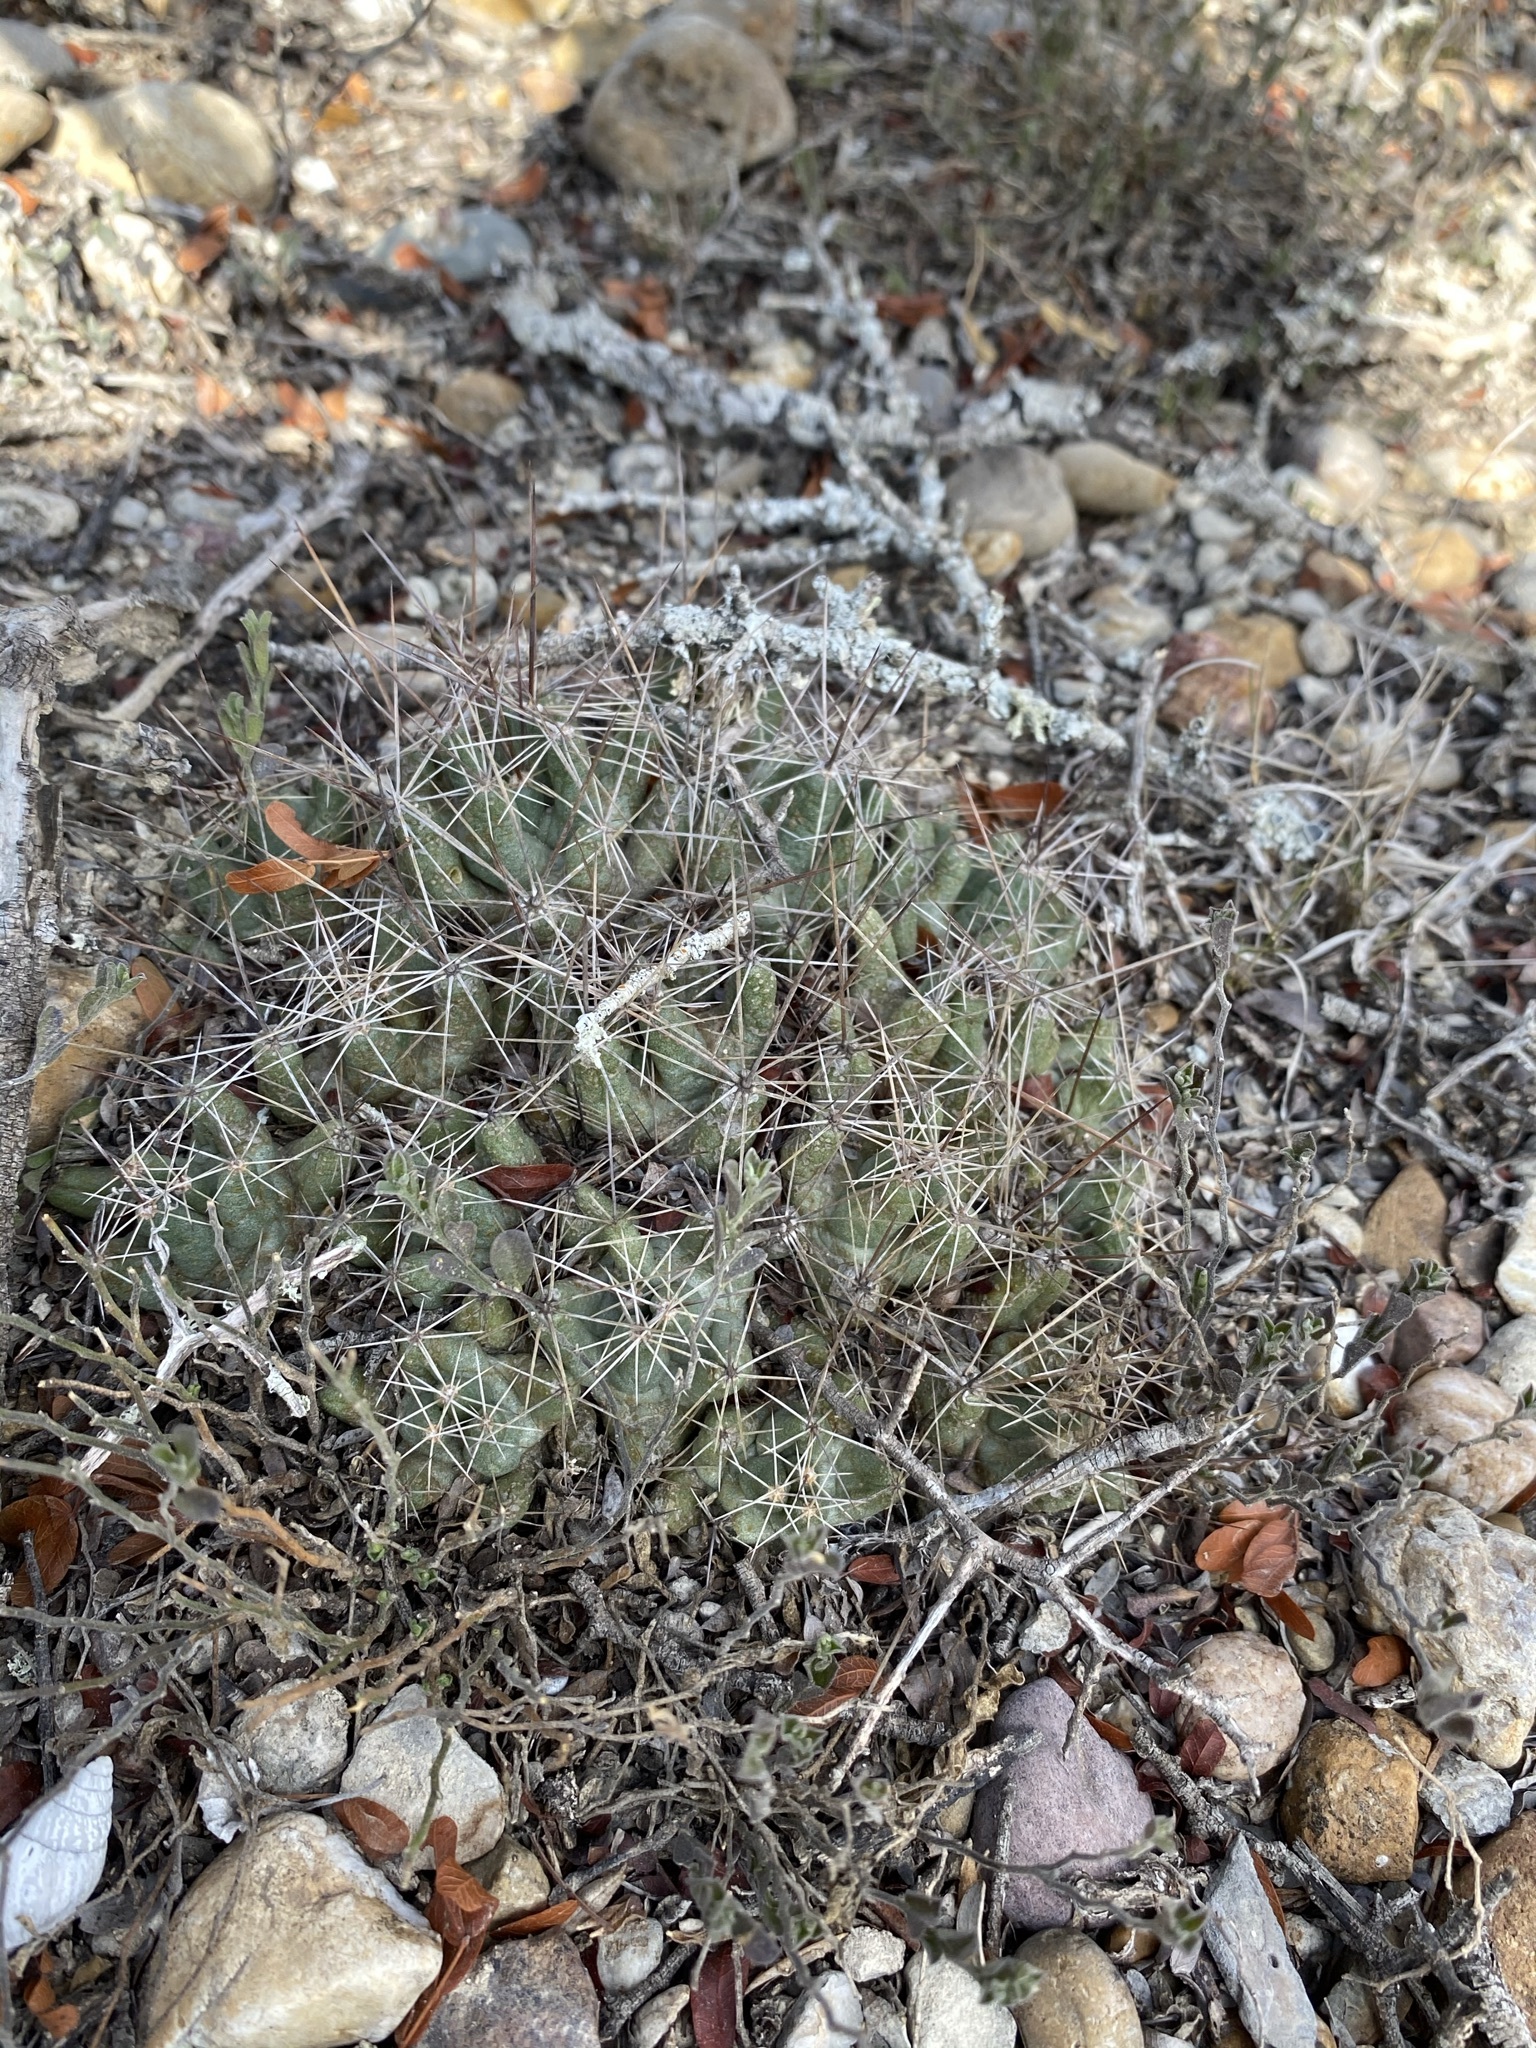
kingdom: Plantae
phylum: Tracheophyta
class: Magnoliopsida
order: Caryophyllales
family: Cactaceae
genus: Pelecyphora
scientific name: Pelecyphora macromeris
